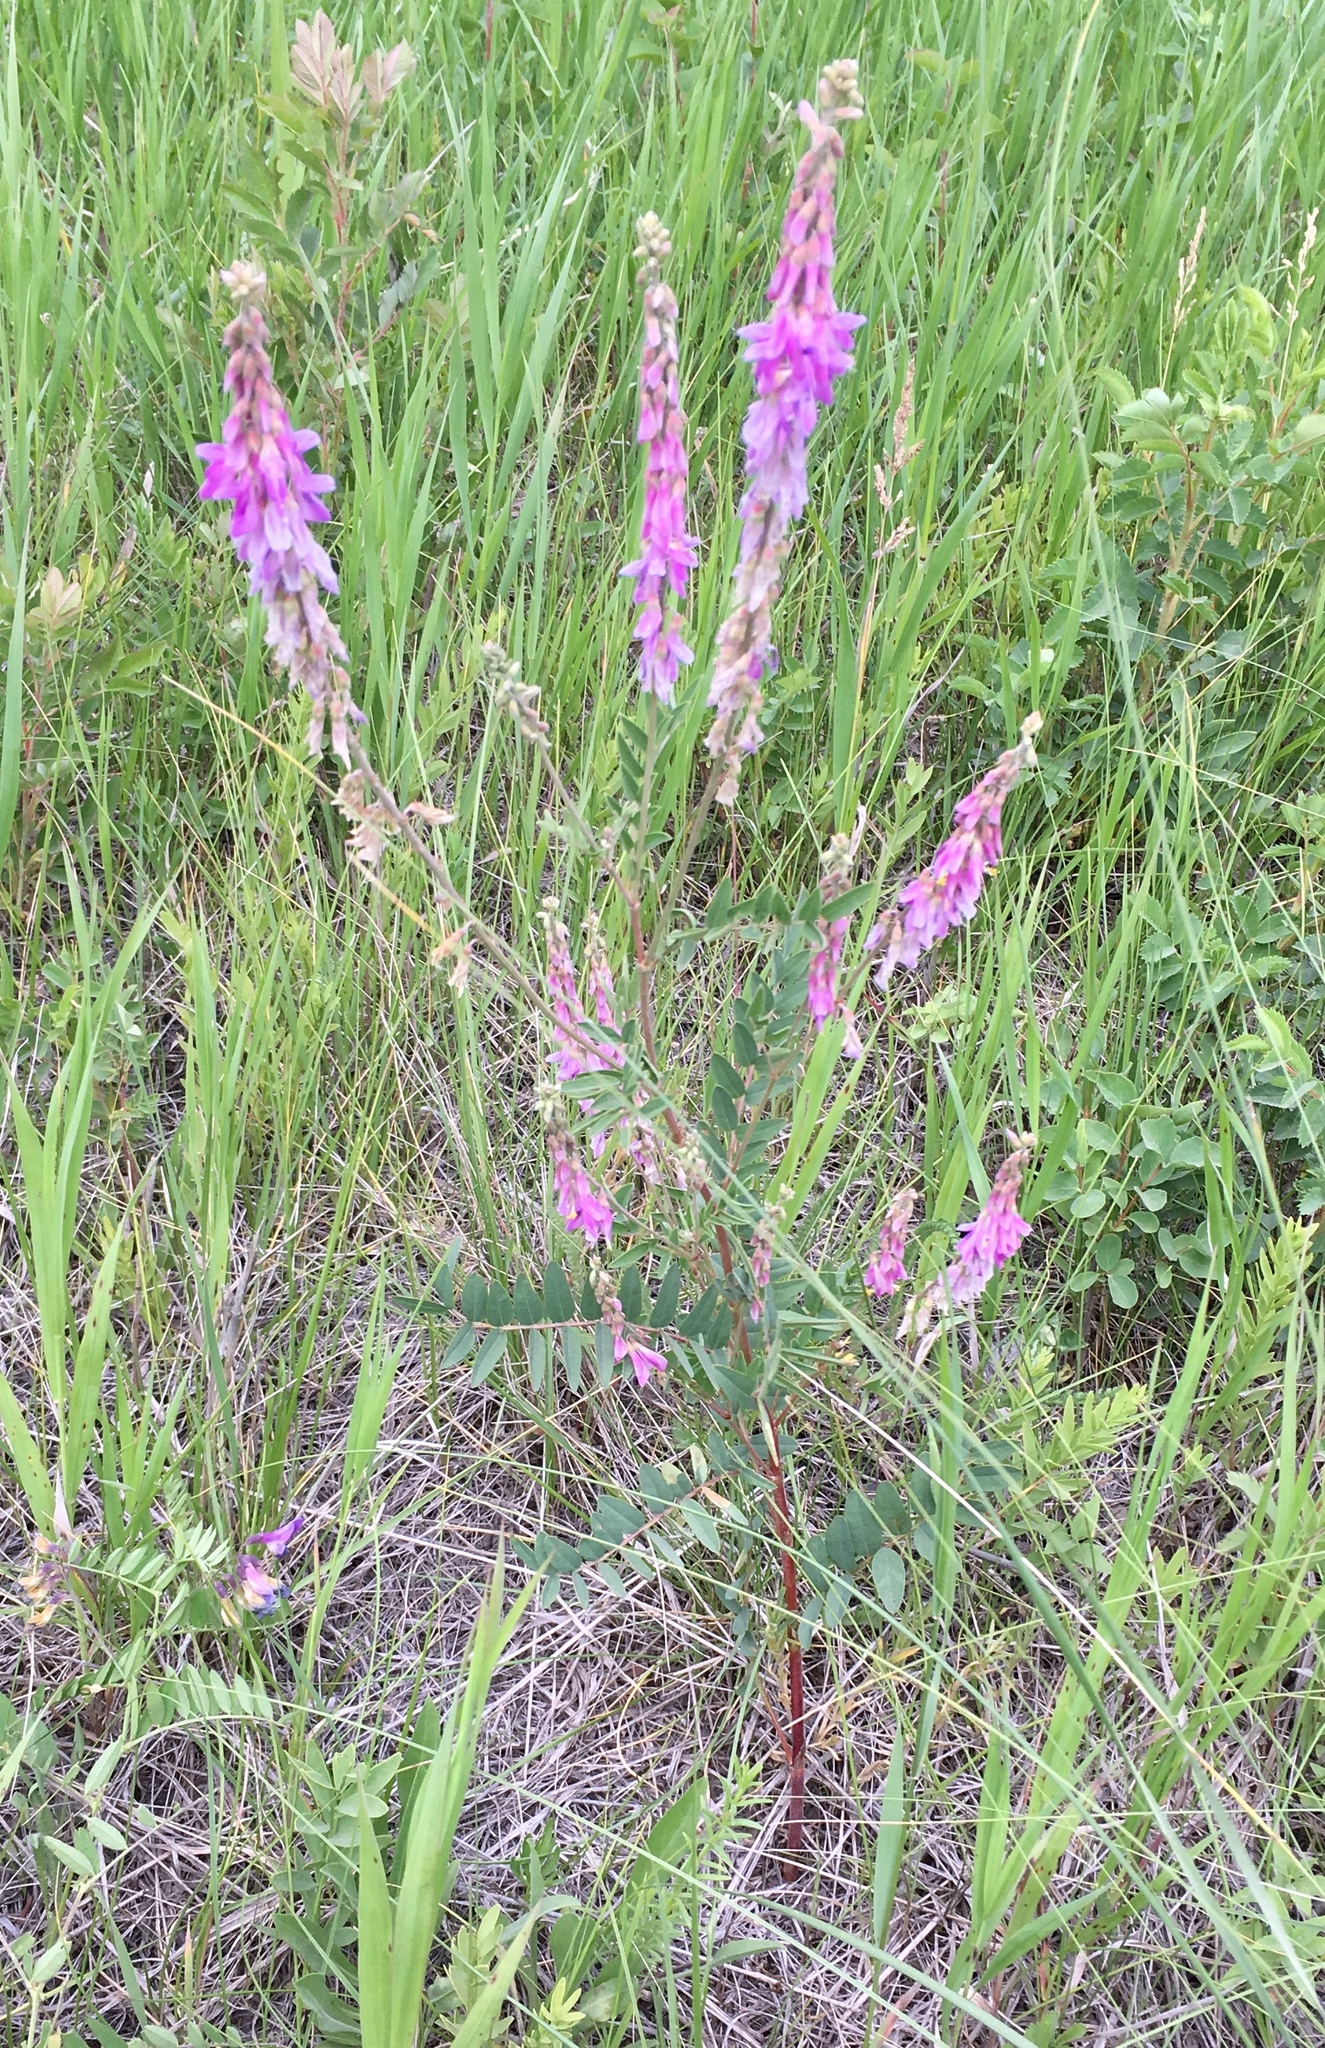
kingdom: Plantae
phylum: Tracheophyta
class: Magnoliopsida
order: Fabales
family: Fabaceae
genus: Hedysarum
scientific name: Hedysarum alpinum
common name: Alpine sweet-vetch
